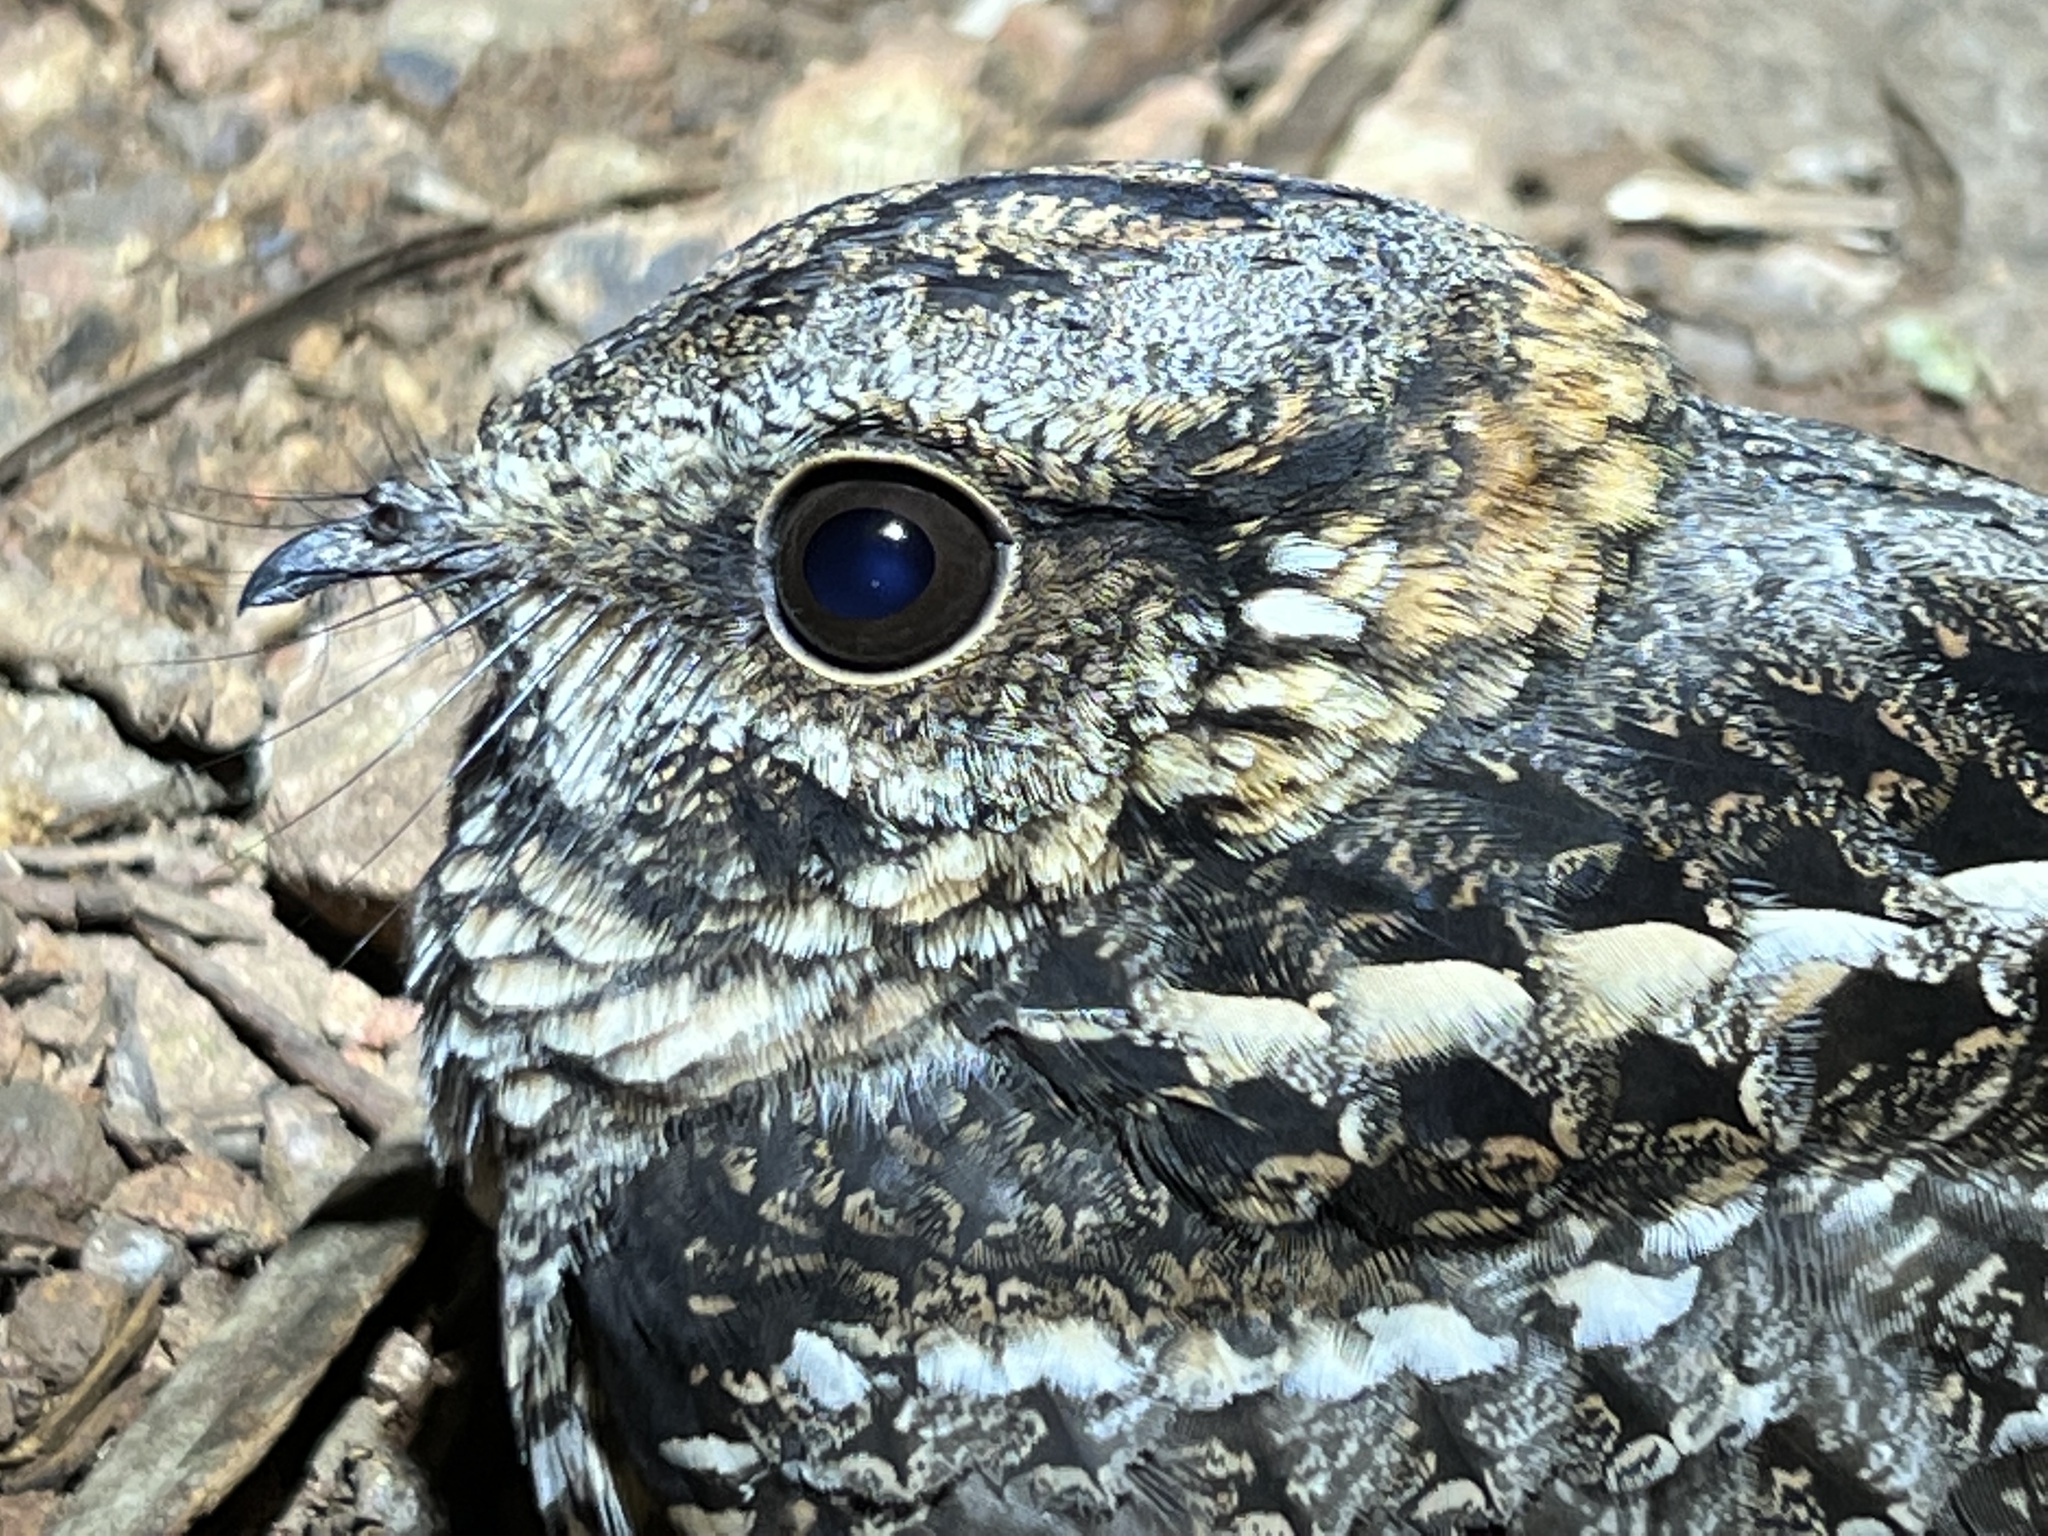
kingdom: Animalia
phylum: Chordata
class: Aves
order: Caprimulgiformes
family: Caprimulgidae
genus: Hydropsalis
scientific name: Hydropsalis torquata
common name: Scissor-tailed nightjar
